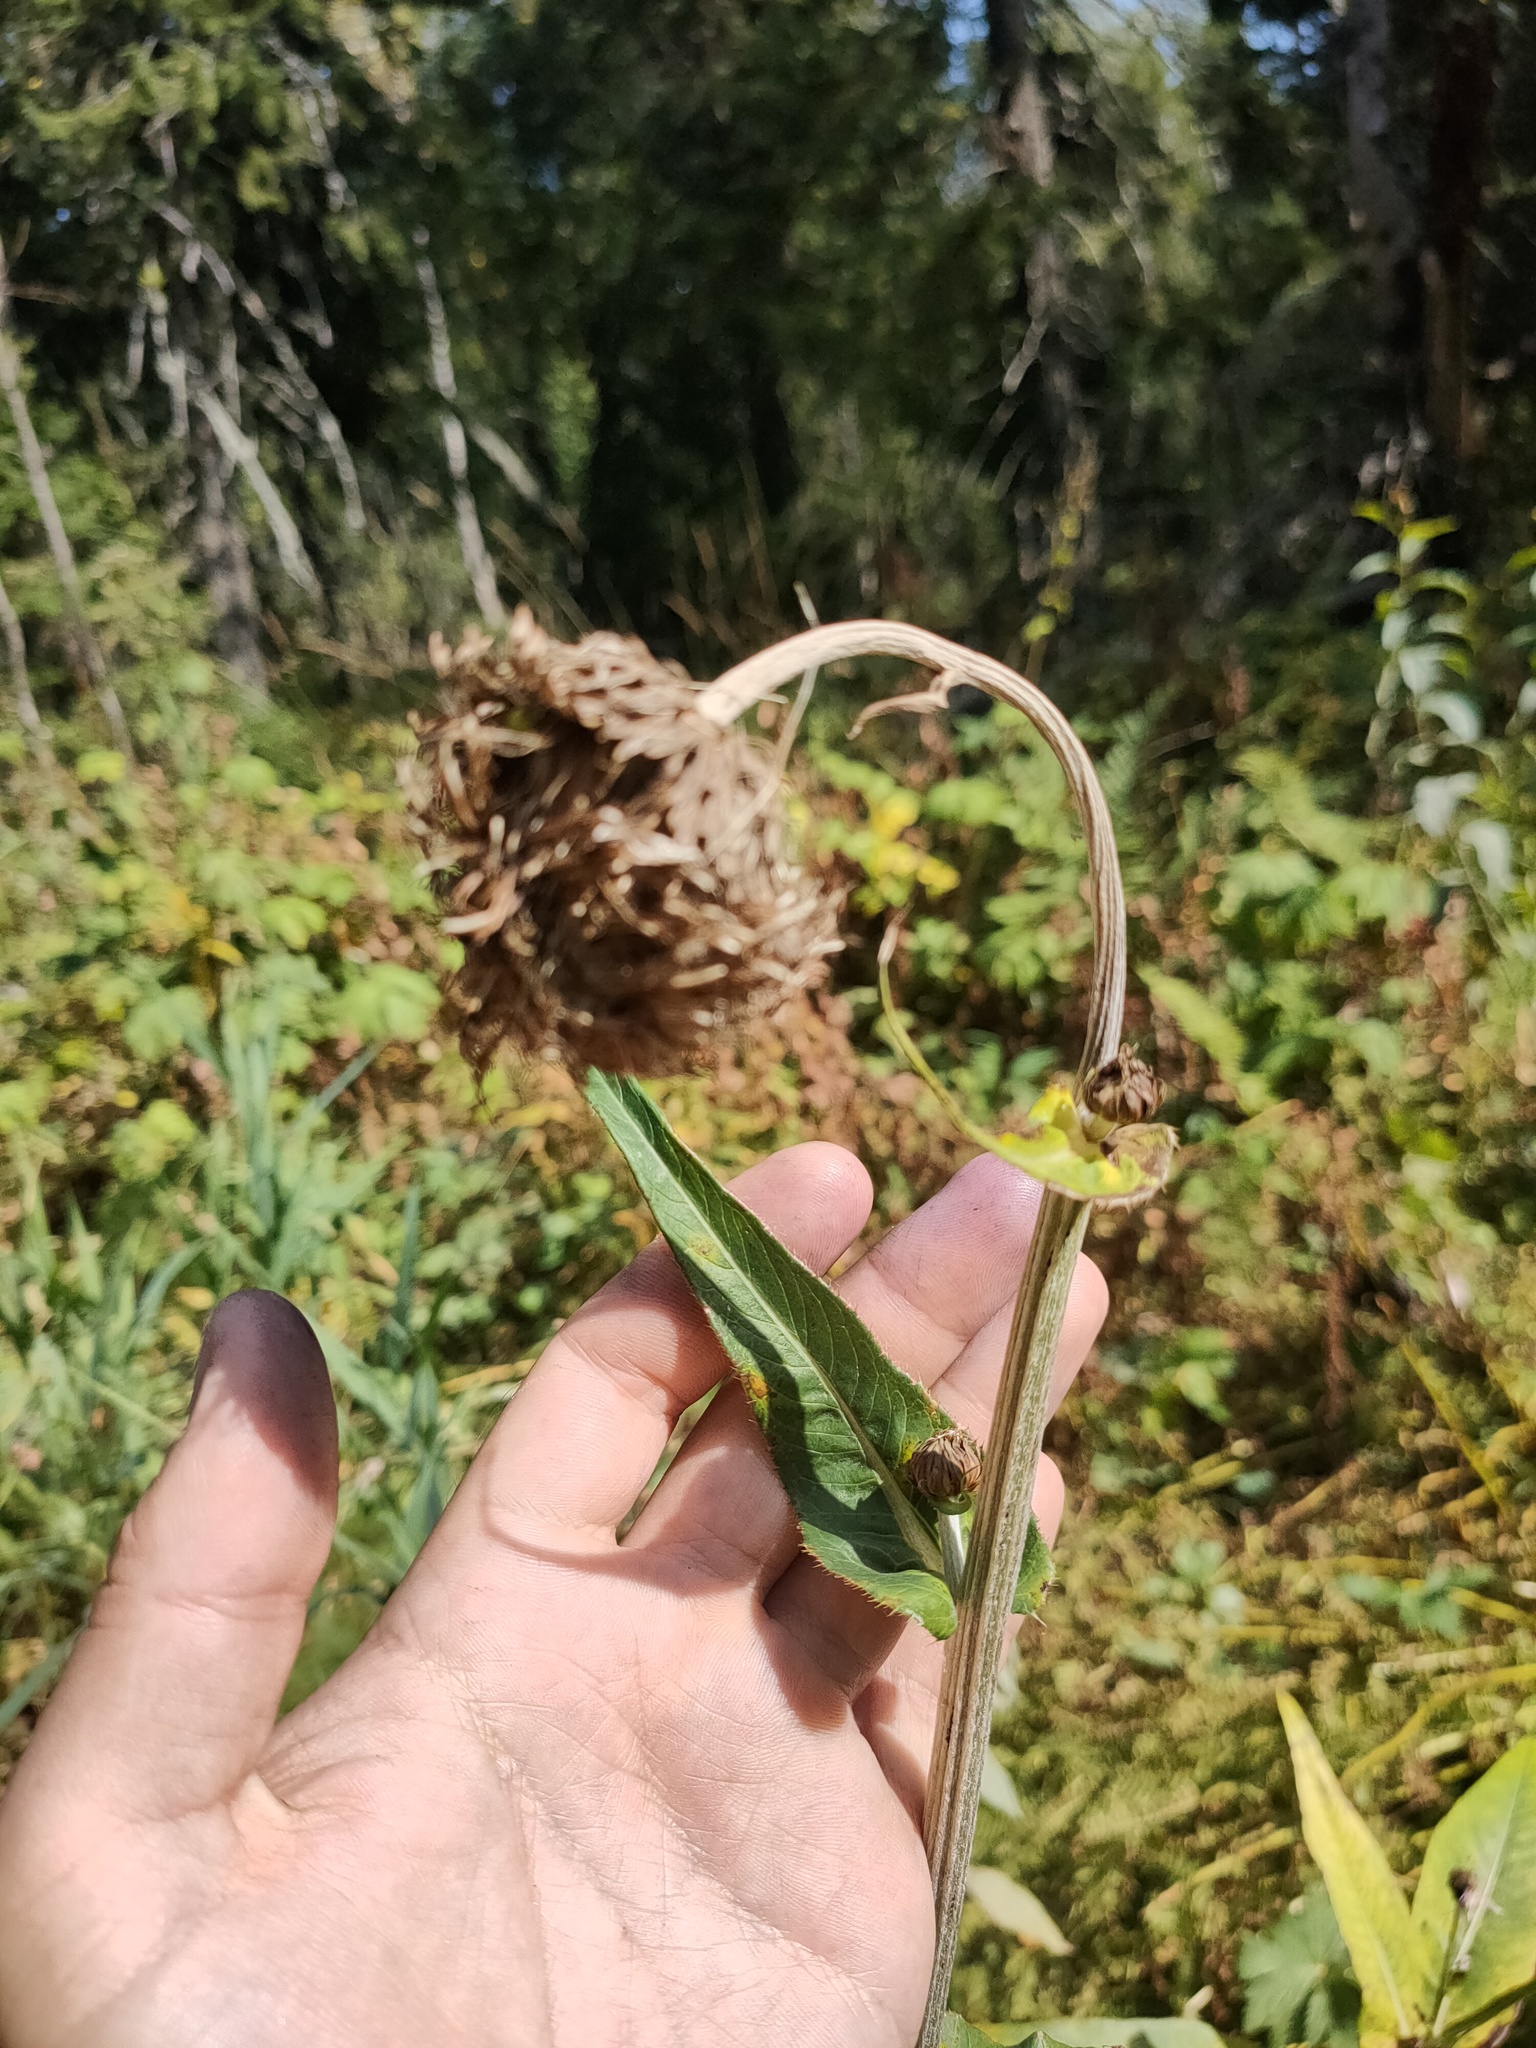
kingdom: Plantae
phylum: Tracheophyta
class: Magnoliopsida
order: Asterales
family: Asteraceae
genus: Cirsium
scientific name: Cirsium heterophyllum
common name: Melancholy thistle
